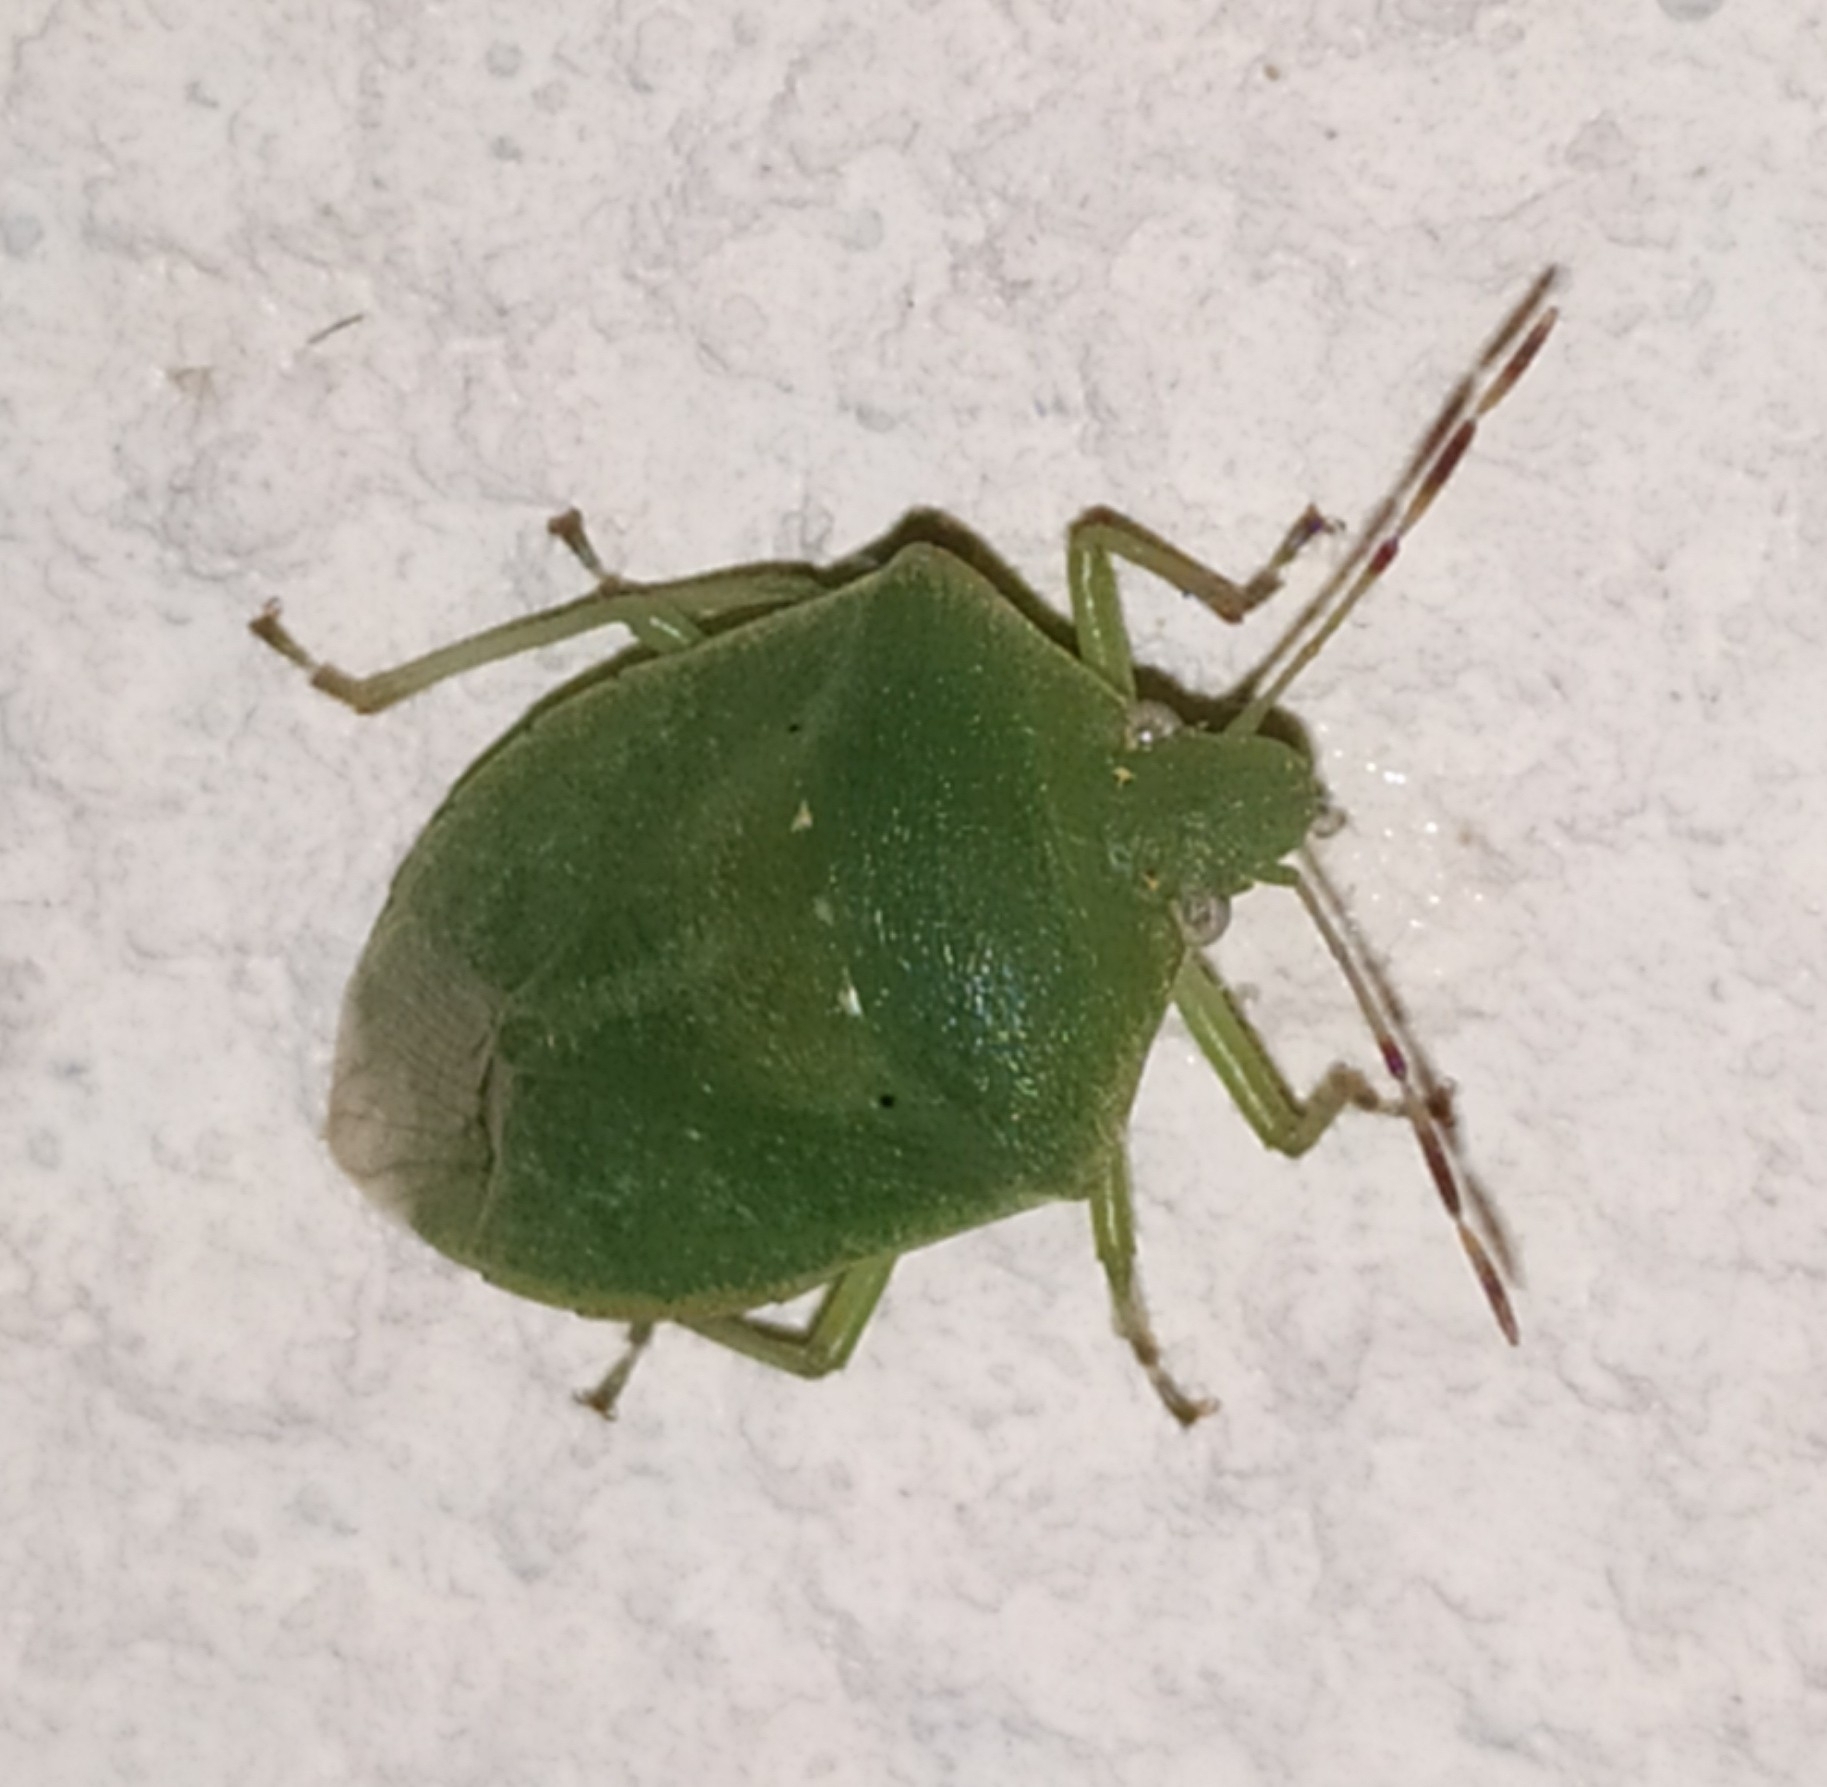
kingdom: Animalia
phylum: Arthropoda
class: Insecta
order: Hemiptera
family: Pentatomidae
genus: Nezara
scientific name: Nezara viridula
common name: Southern green stink bug
